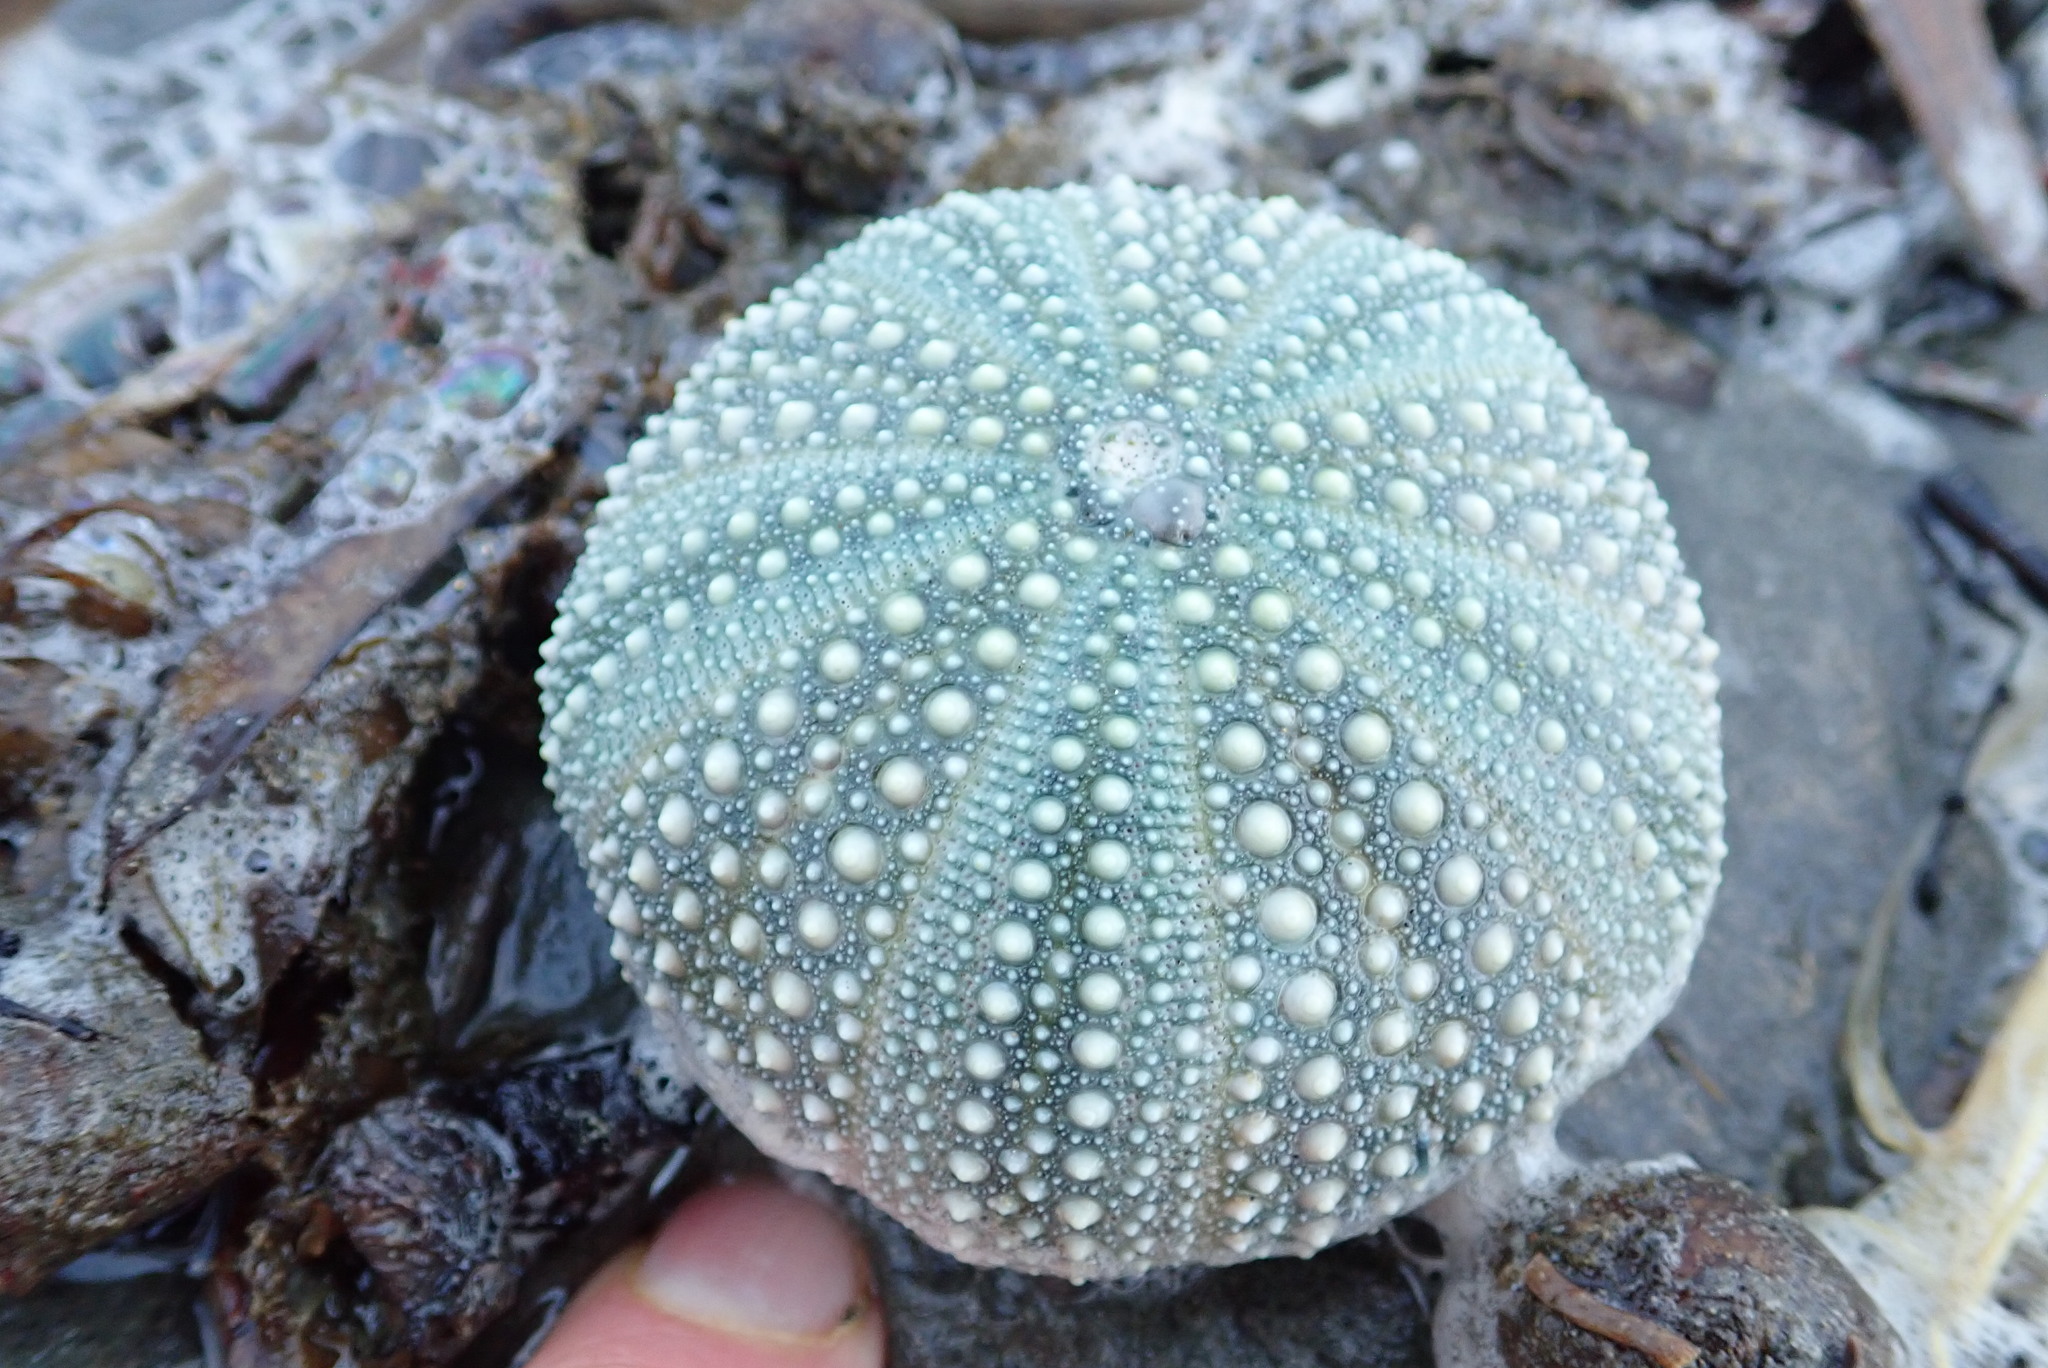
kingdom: Animalia
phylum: Echinodermata
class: Echinoidea
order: Camarodonta
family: Echinometridae
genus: Evechinus
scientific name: Evechinus chloroticus
